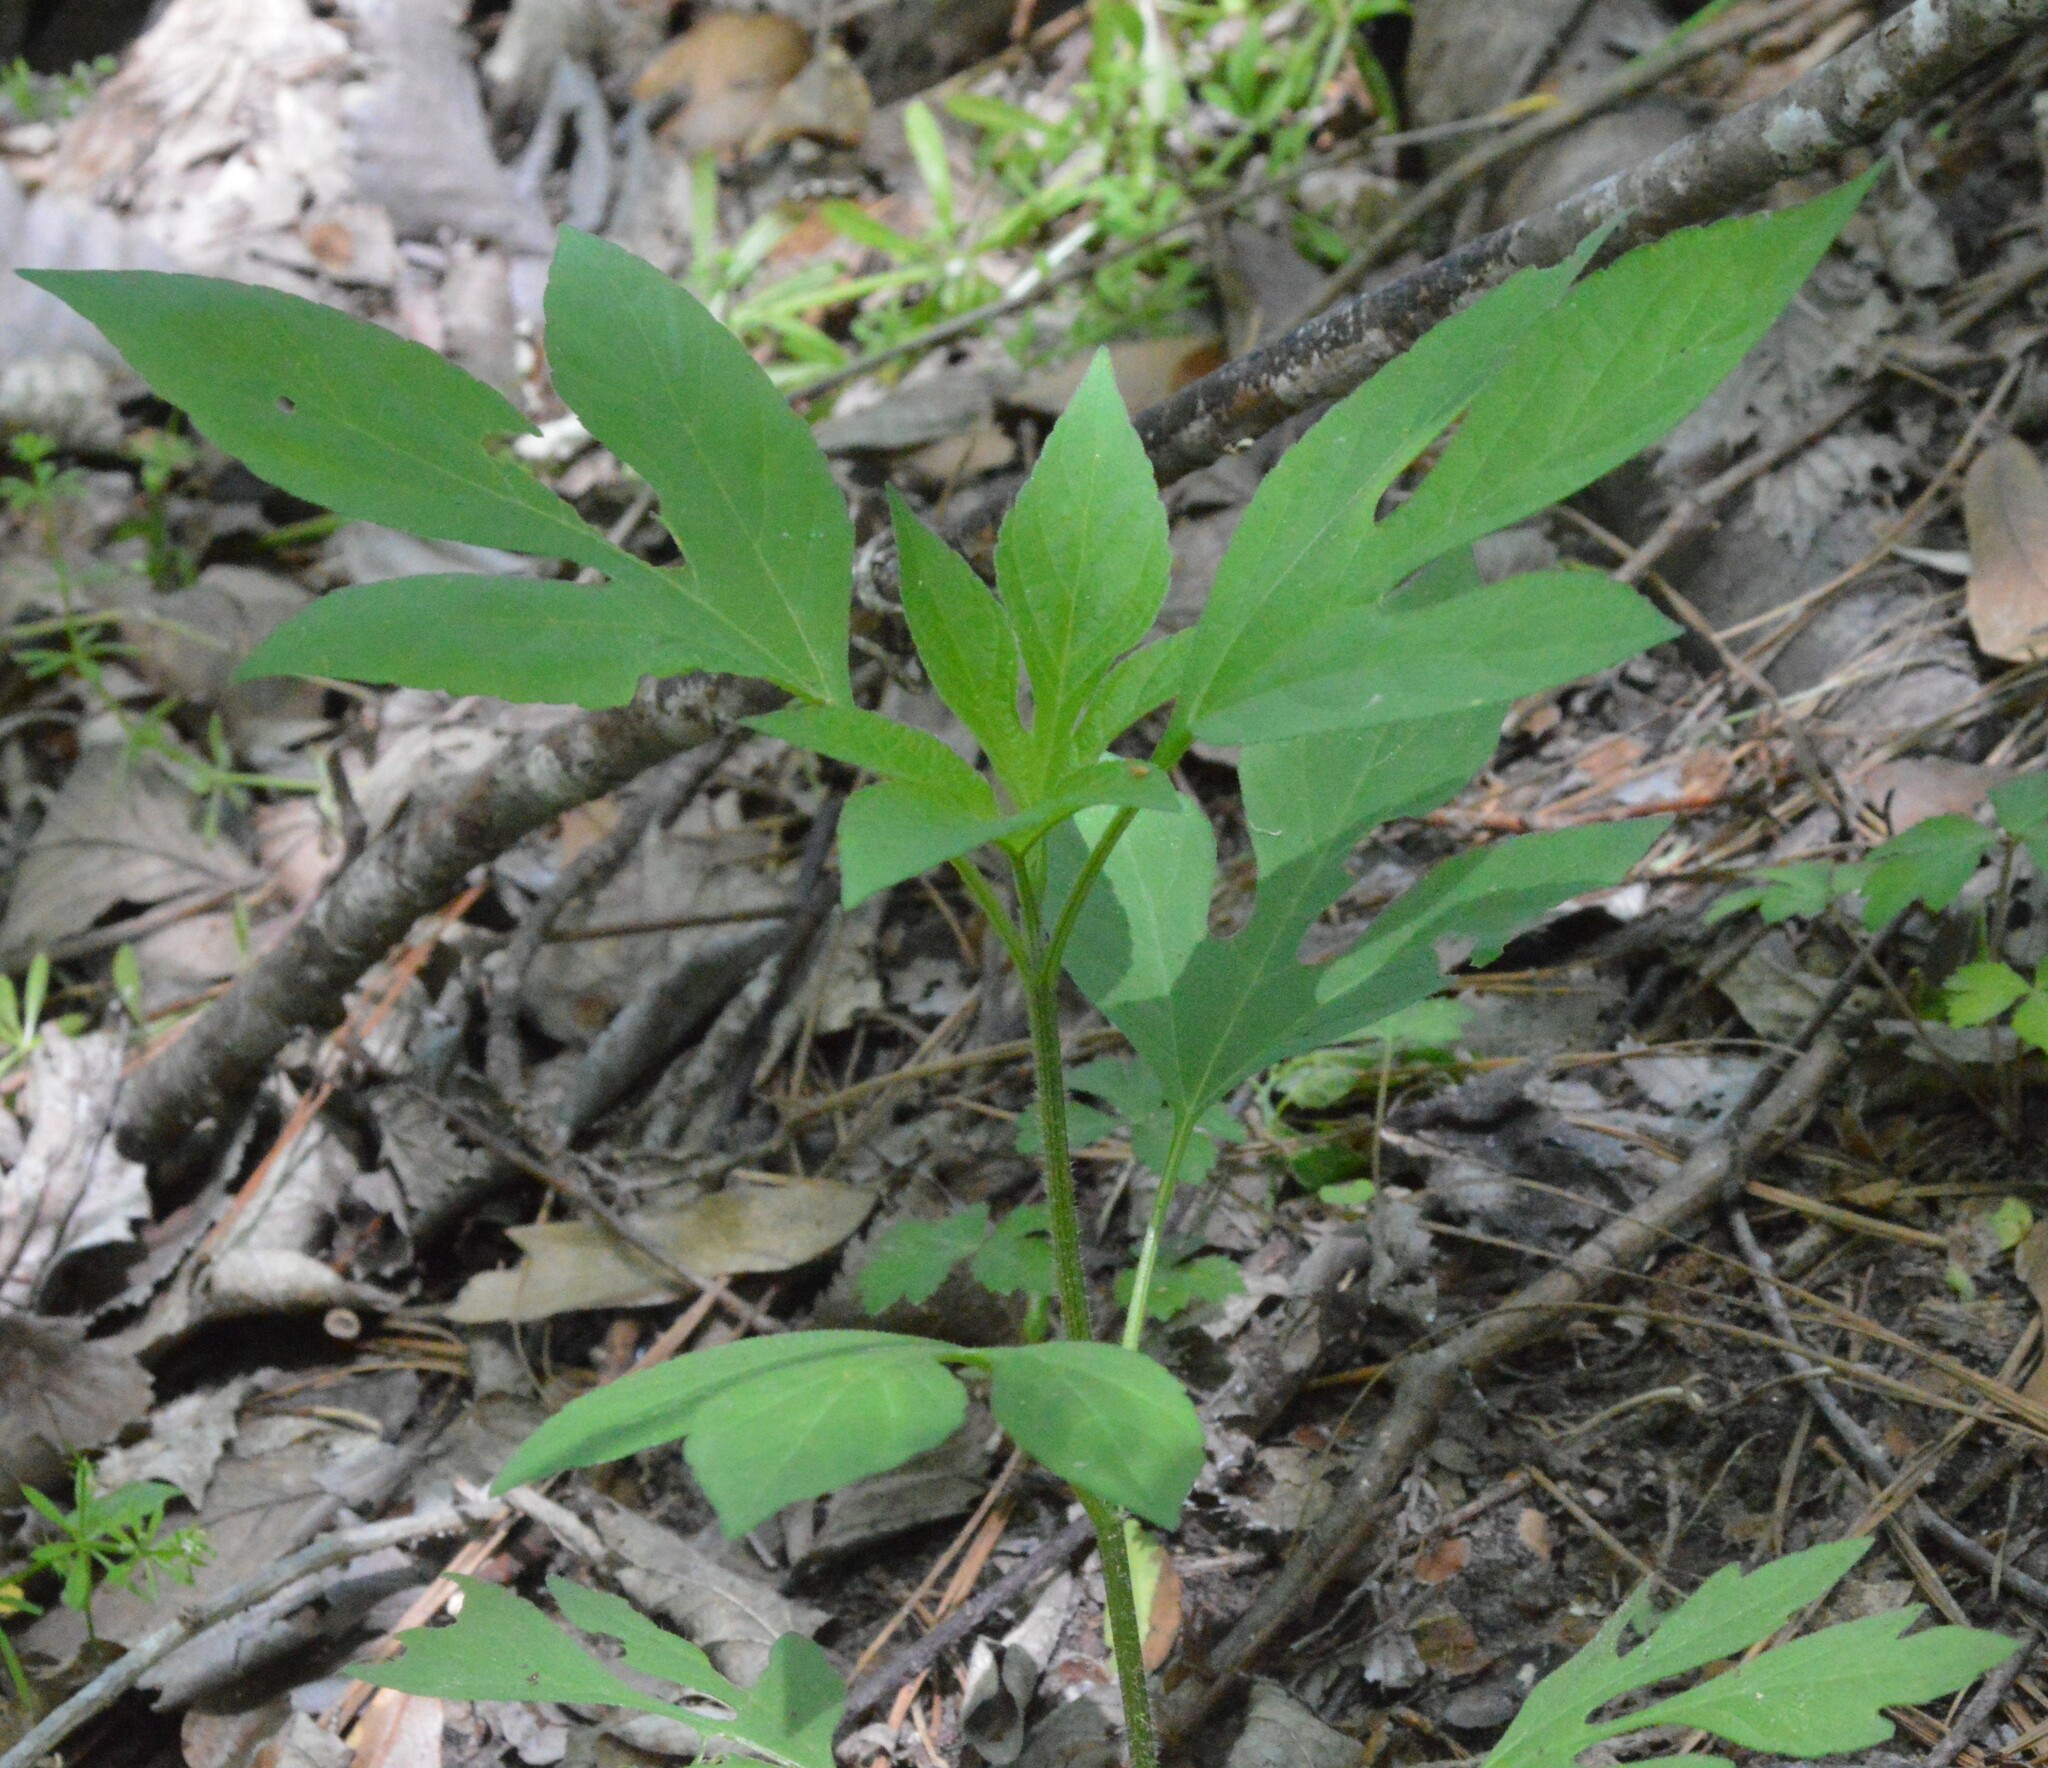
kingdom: Plantae
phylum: Tracheophyta
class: Magnoliopsida
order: Asterales
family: Asteraceae
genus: Ambrosia
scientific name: Ambrosia trifida
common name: Giant ragweed
